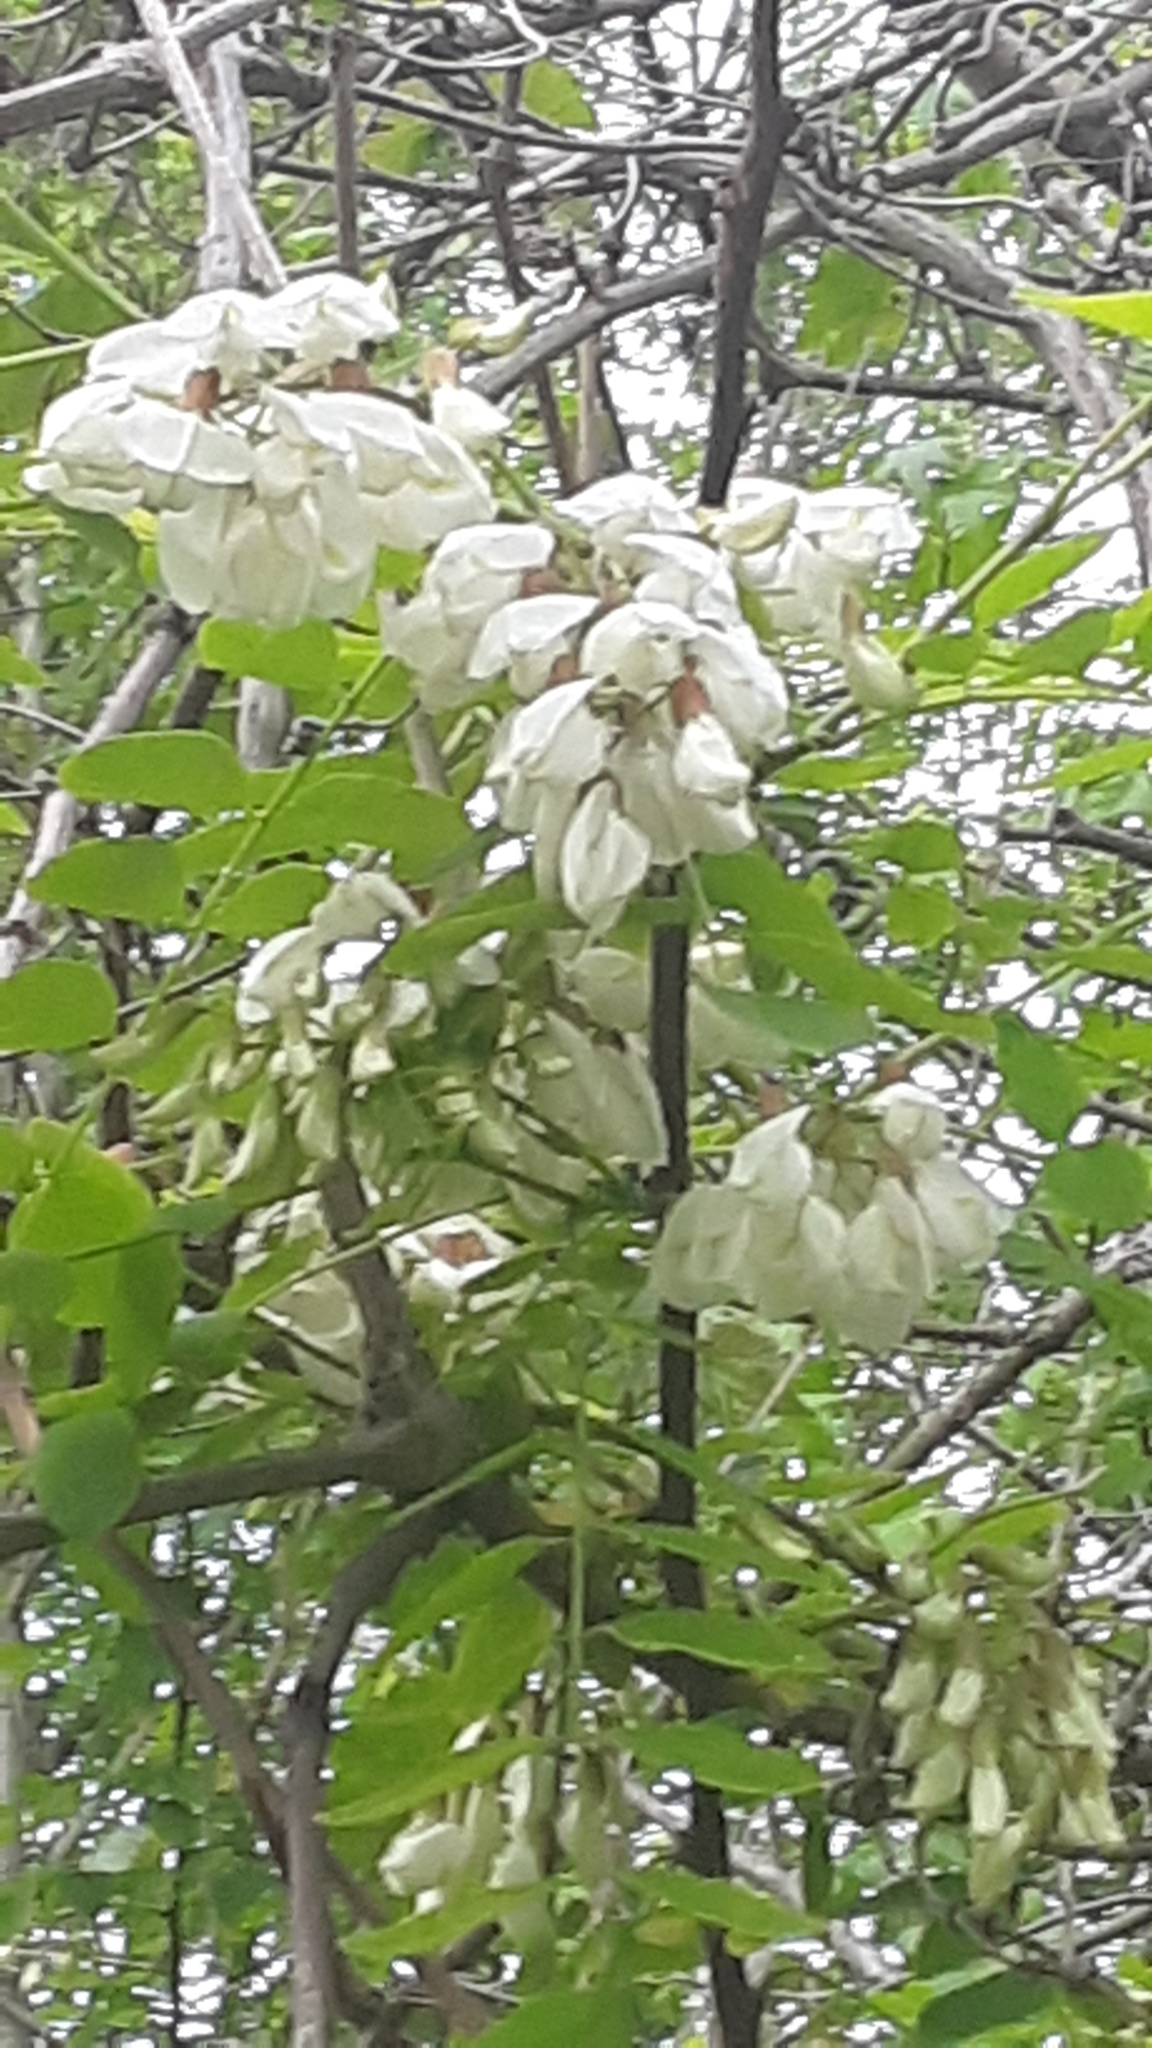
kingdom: Plantae
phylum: Tracheophyta
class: Magnoliopsida
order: Fabales
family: Fabaceae
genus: Robinia
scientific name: Robinia pseudoacacia
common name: Black locust
